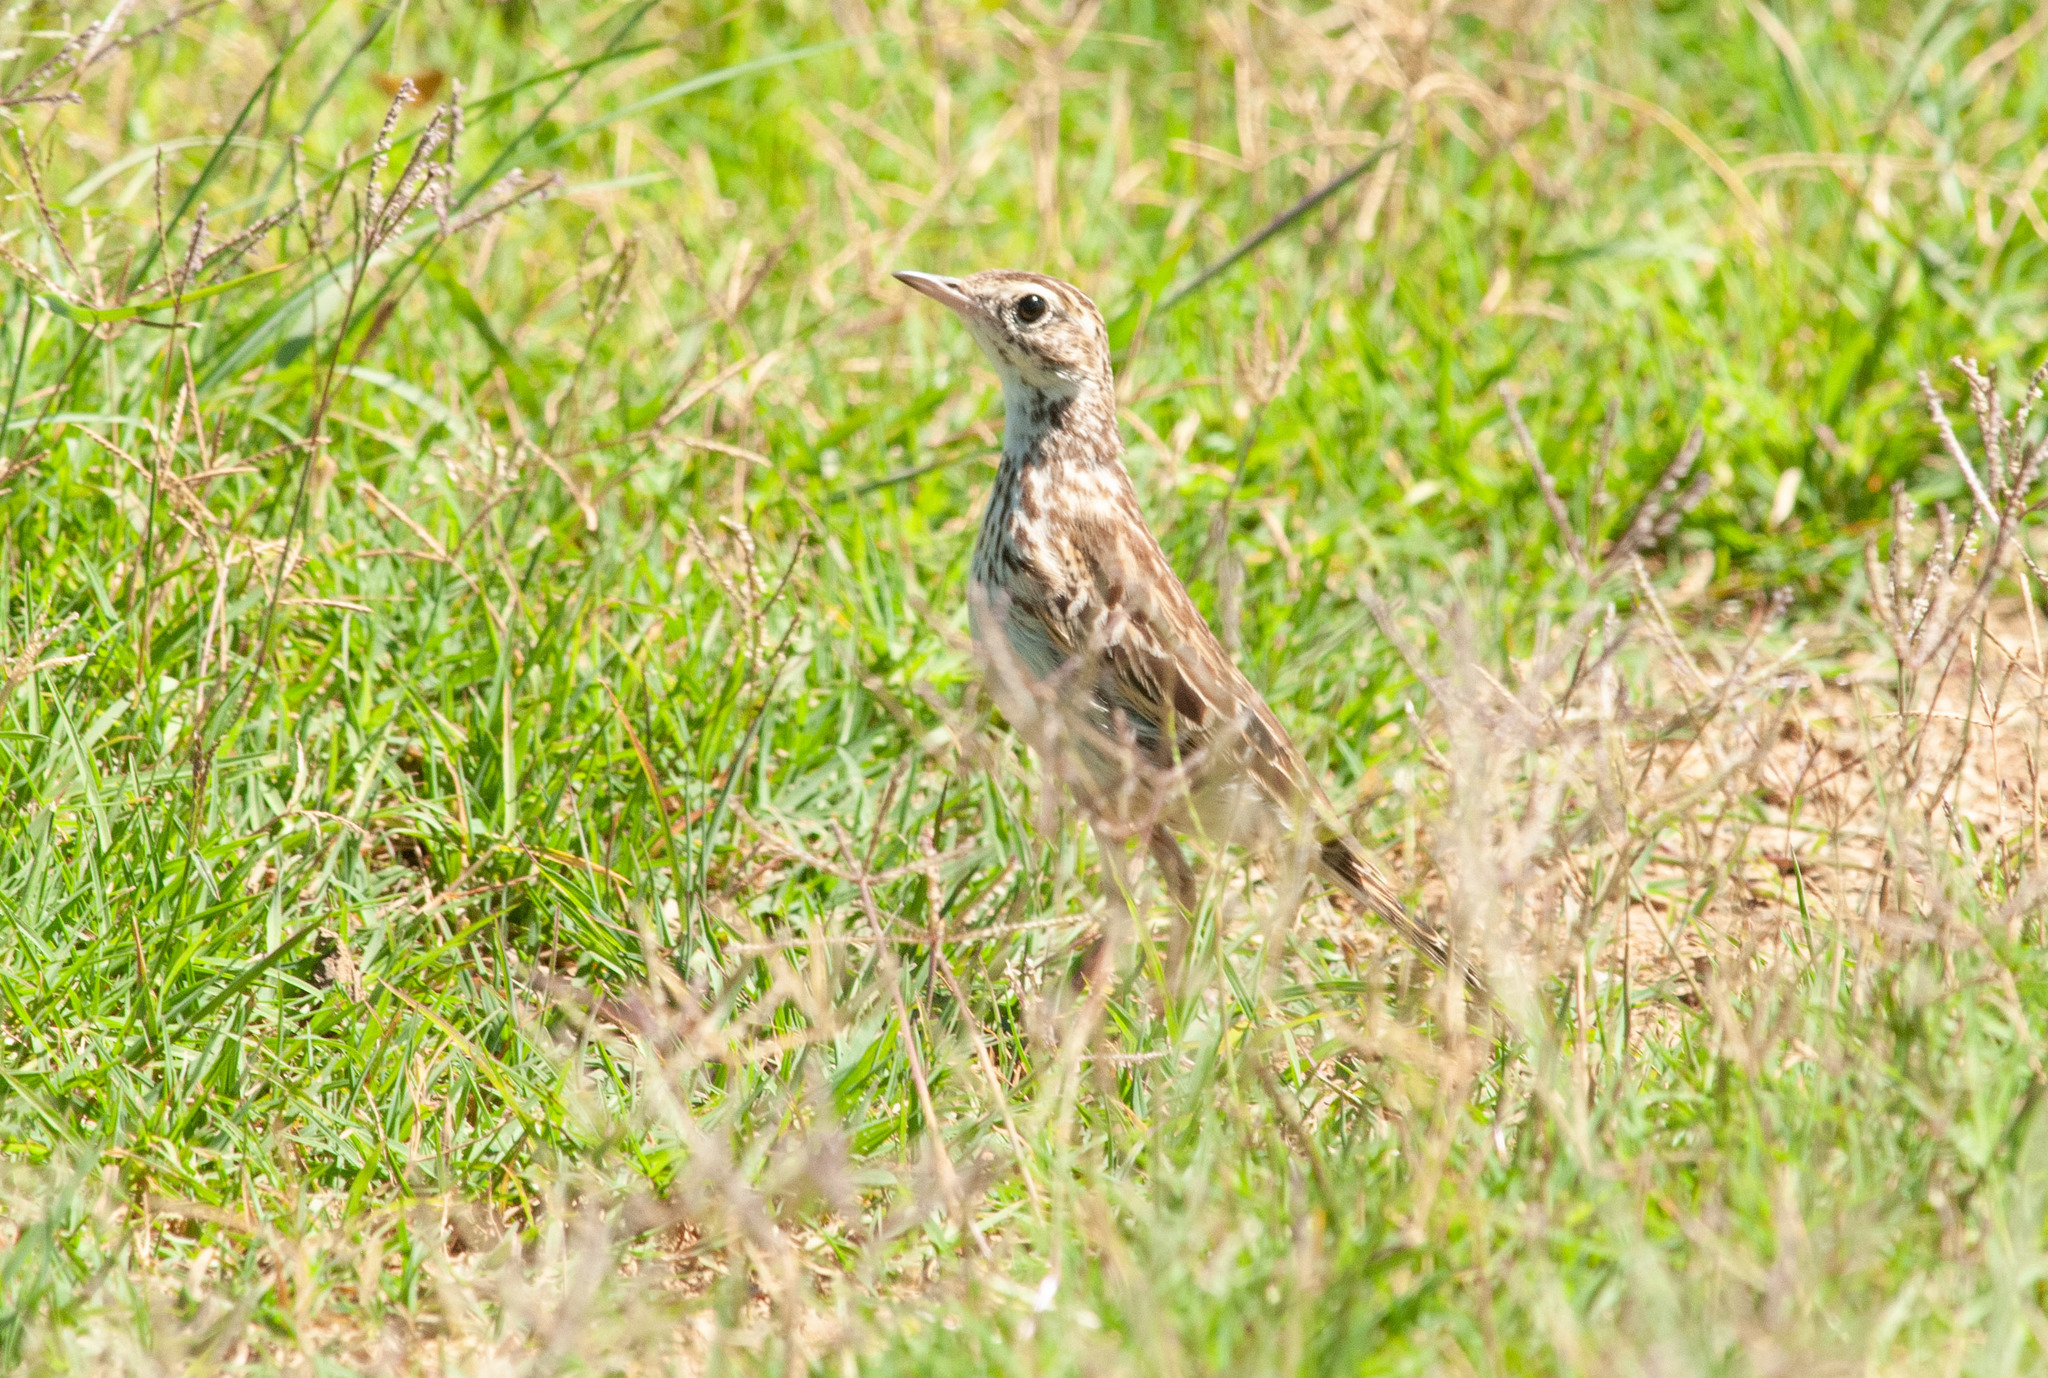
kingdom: Animalia
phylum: Chordata
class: Aves
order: Passeriformes
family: Motacillidae
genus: Anthus
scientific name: Anthus australis
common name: Australian pipit
